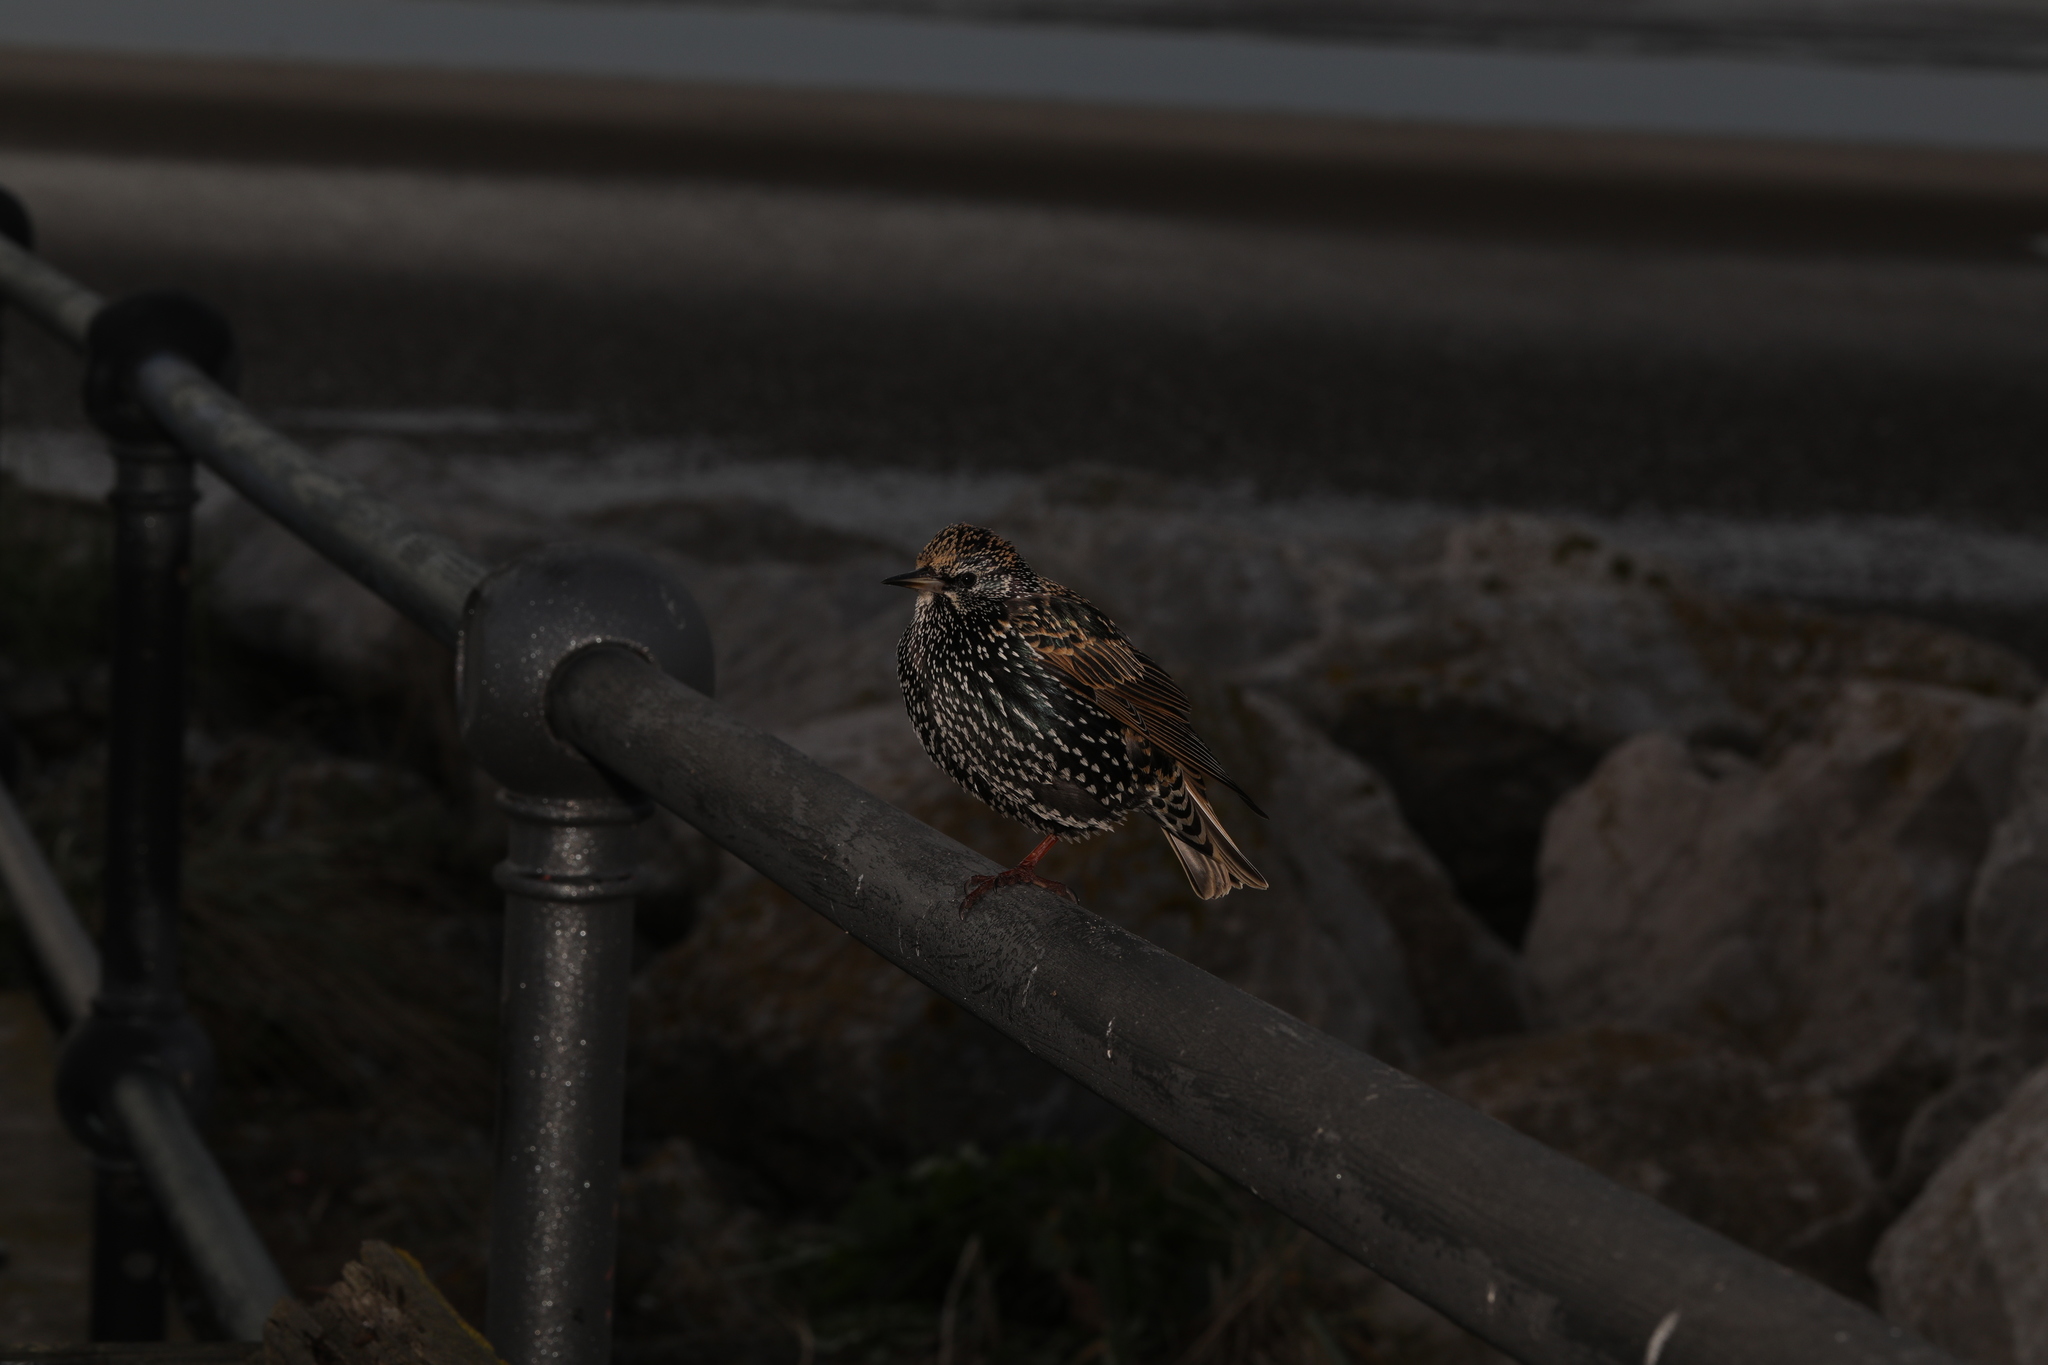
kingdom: Animalia
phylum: Chordata
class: Aves
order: Passeriformes
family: Sturnidae
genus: Sturnus
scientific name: Sturnus vulgaris
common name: Common starling
